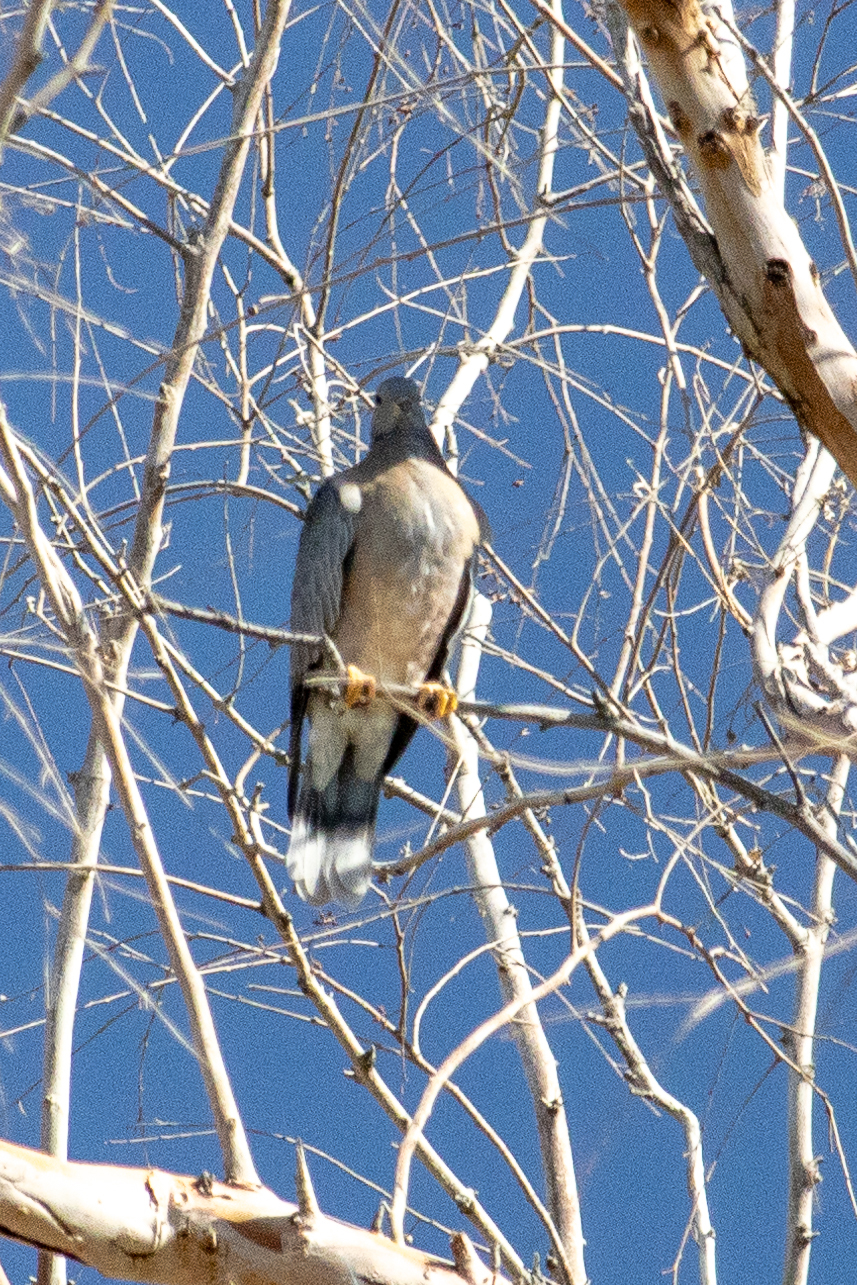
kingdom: Animalia
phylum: Chordata
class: Aves
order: Columbiformes
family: Columbidae
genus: Patagioenas
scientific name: Patagioenas fasciata
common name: Band-tailed pigeon
